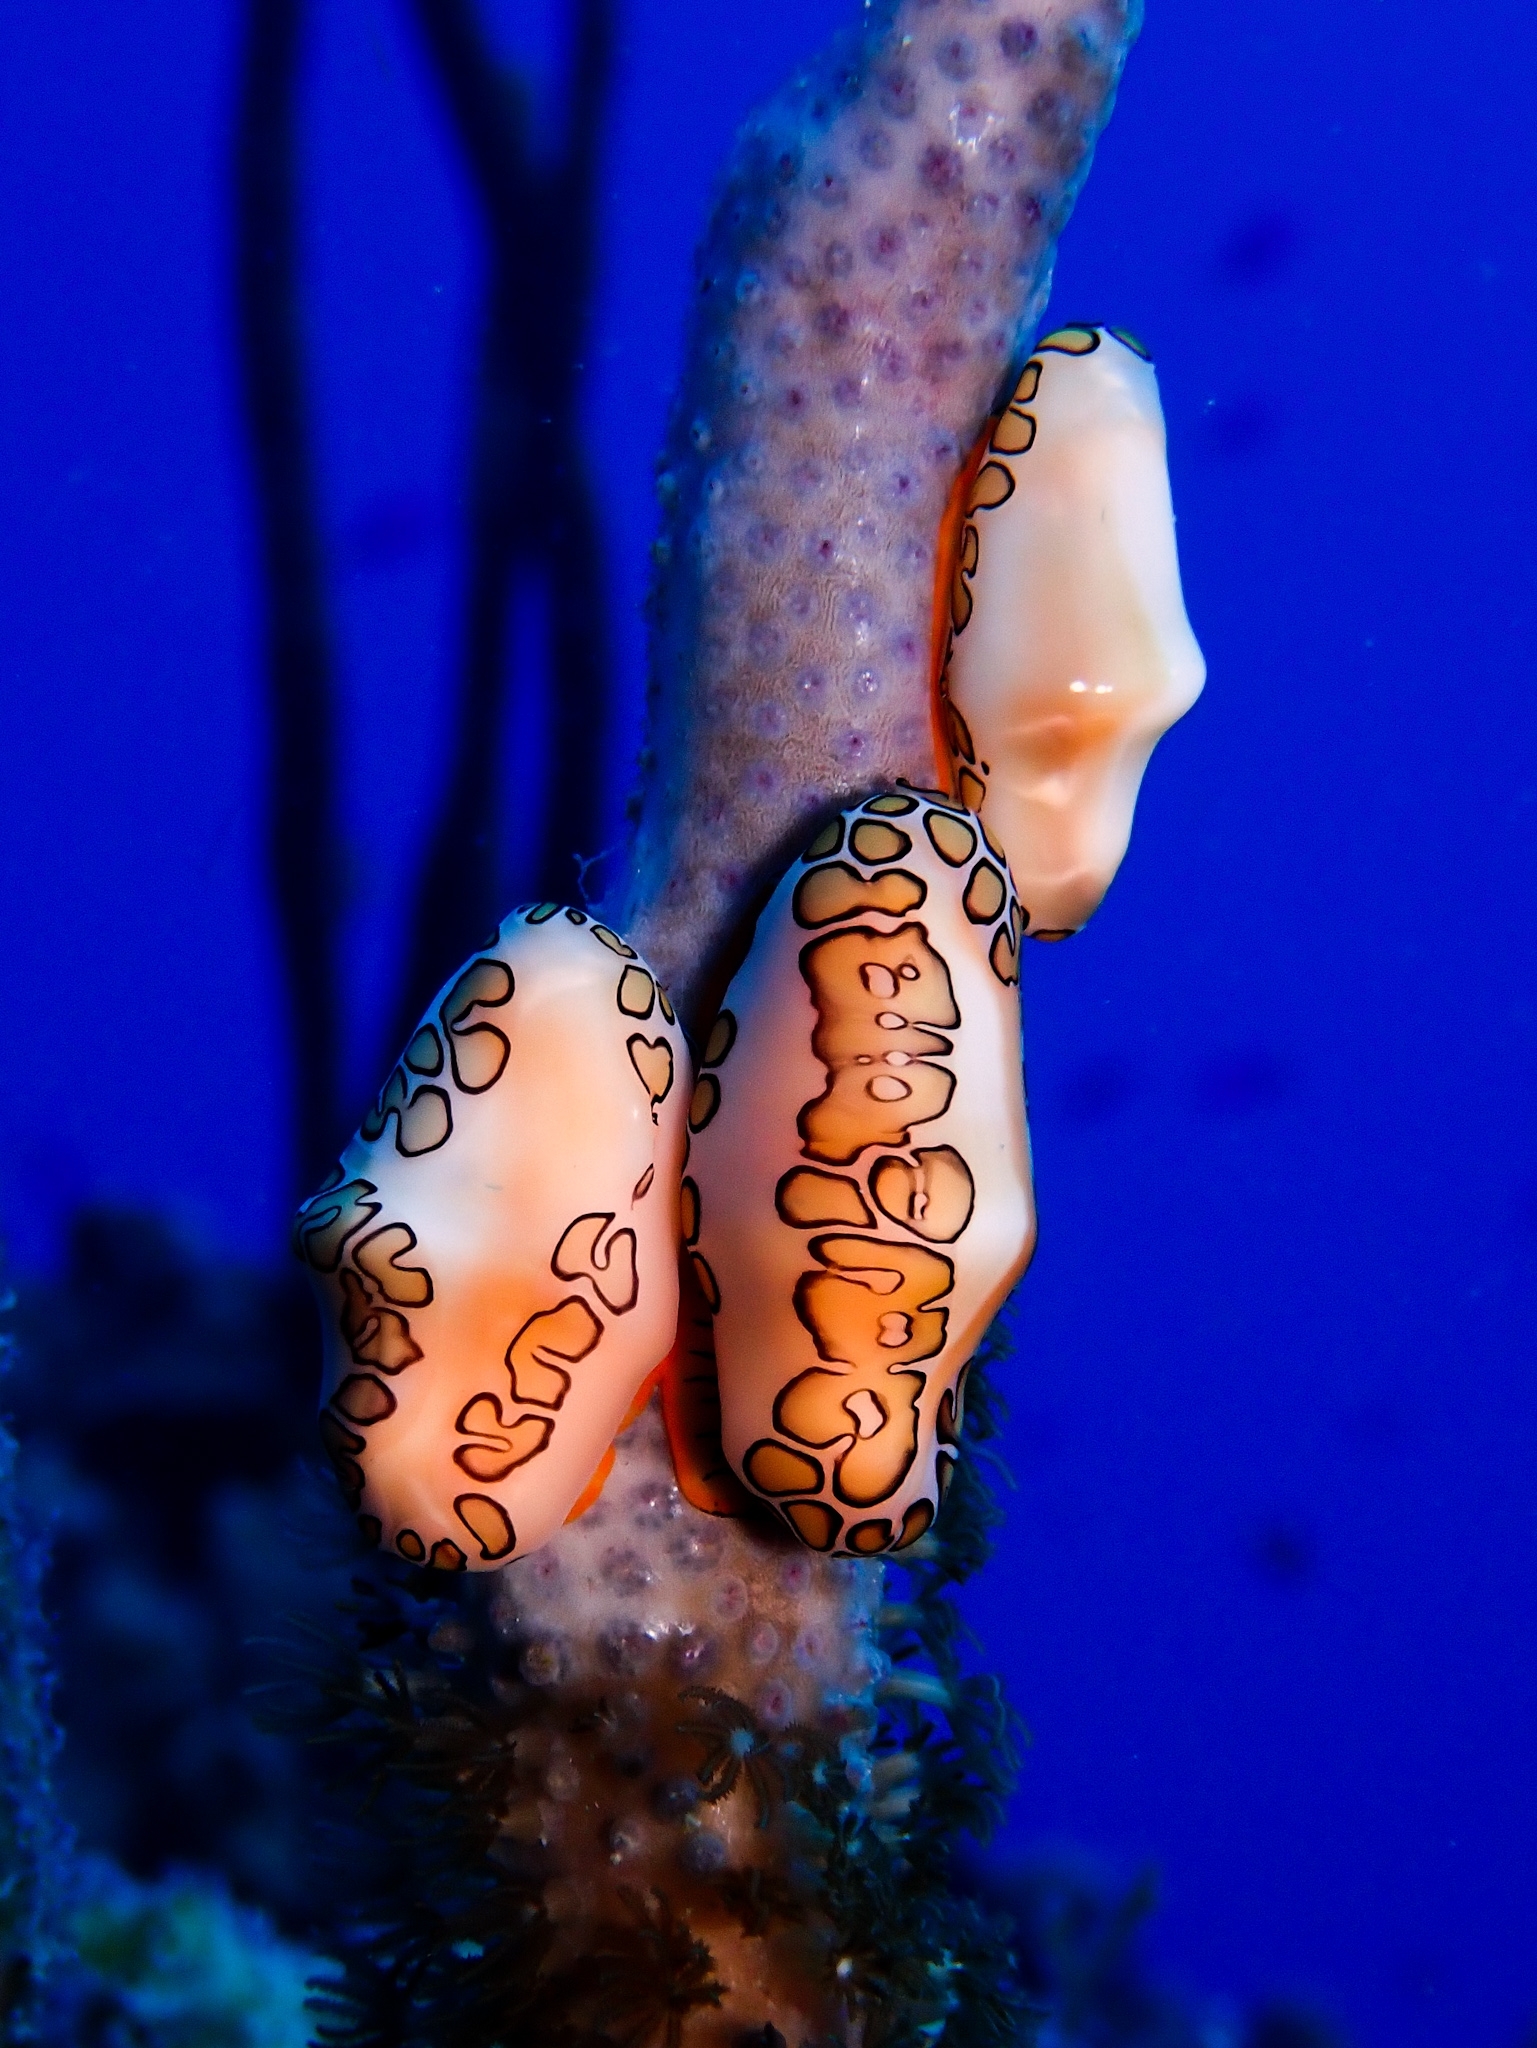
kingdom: Animalia
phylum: Mollusca
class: Gastropoda
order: Littorinimorpha
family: Ovulidae
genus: Cyphoma
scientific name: Cyphoma gibbosum
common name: Flamingo tongue
